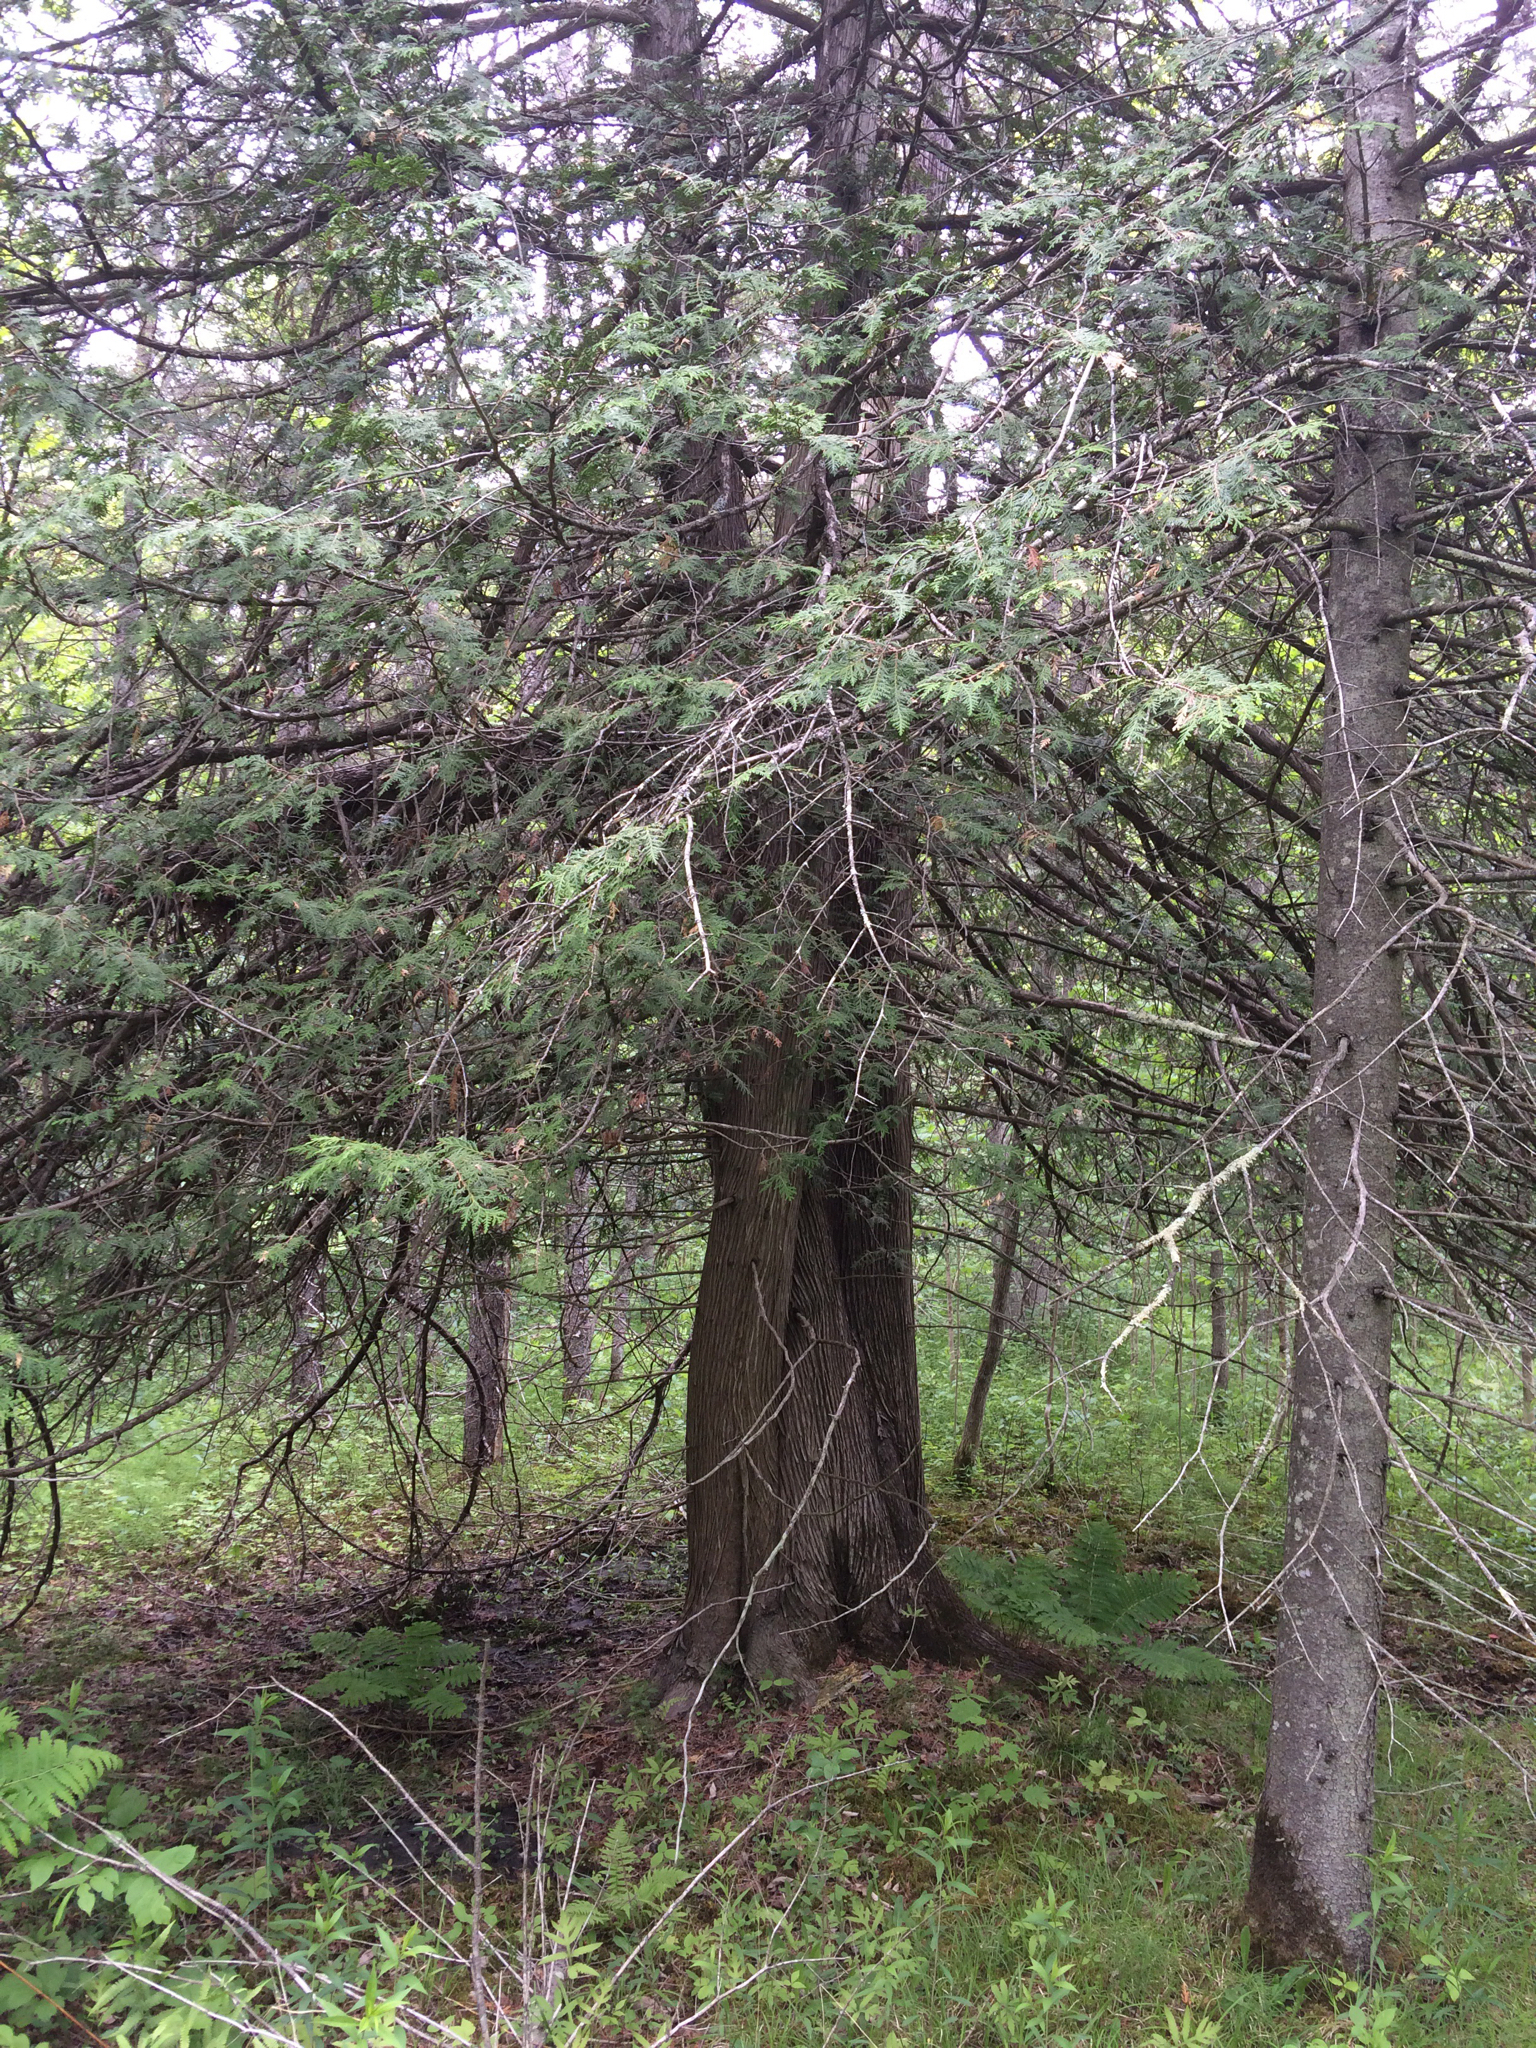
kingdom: Plantae
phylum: Tracheophyta
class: Pinopsida
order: Pinales
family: Cupressaceae
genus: Thuja
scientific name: Thuja occidentalis
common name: Northern white-cedar
